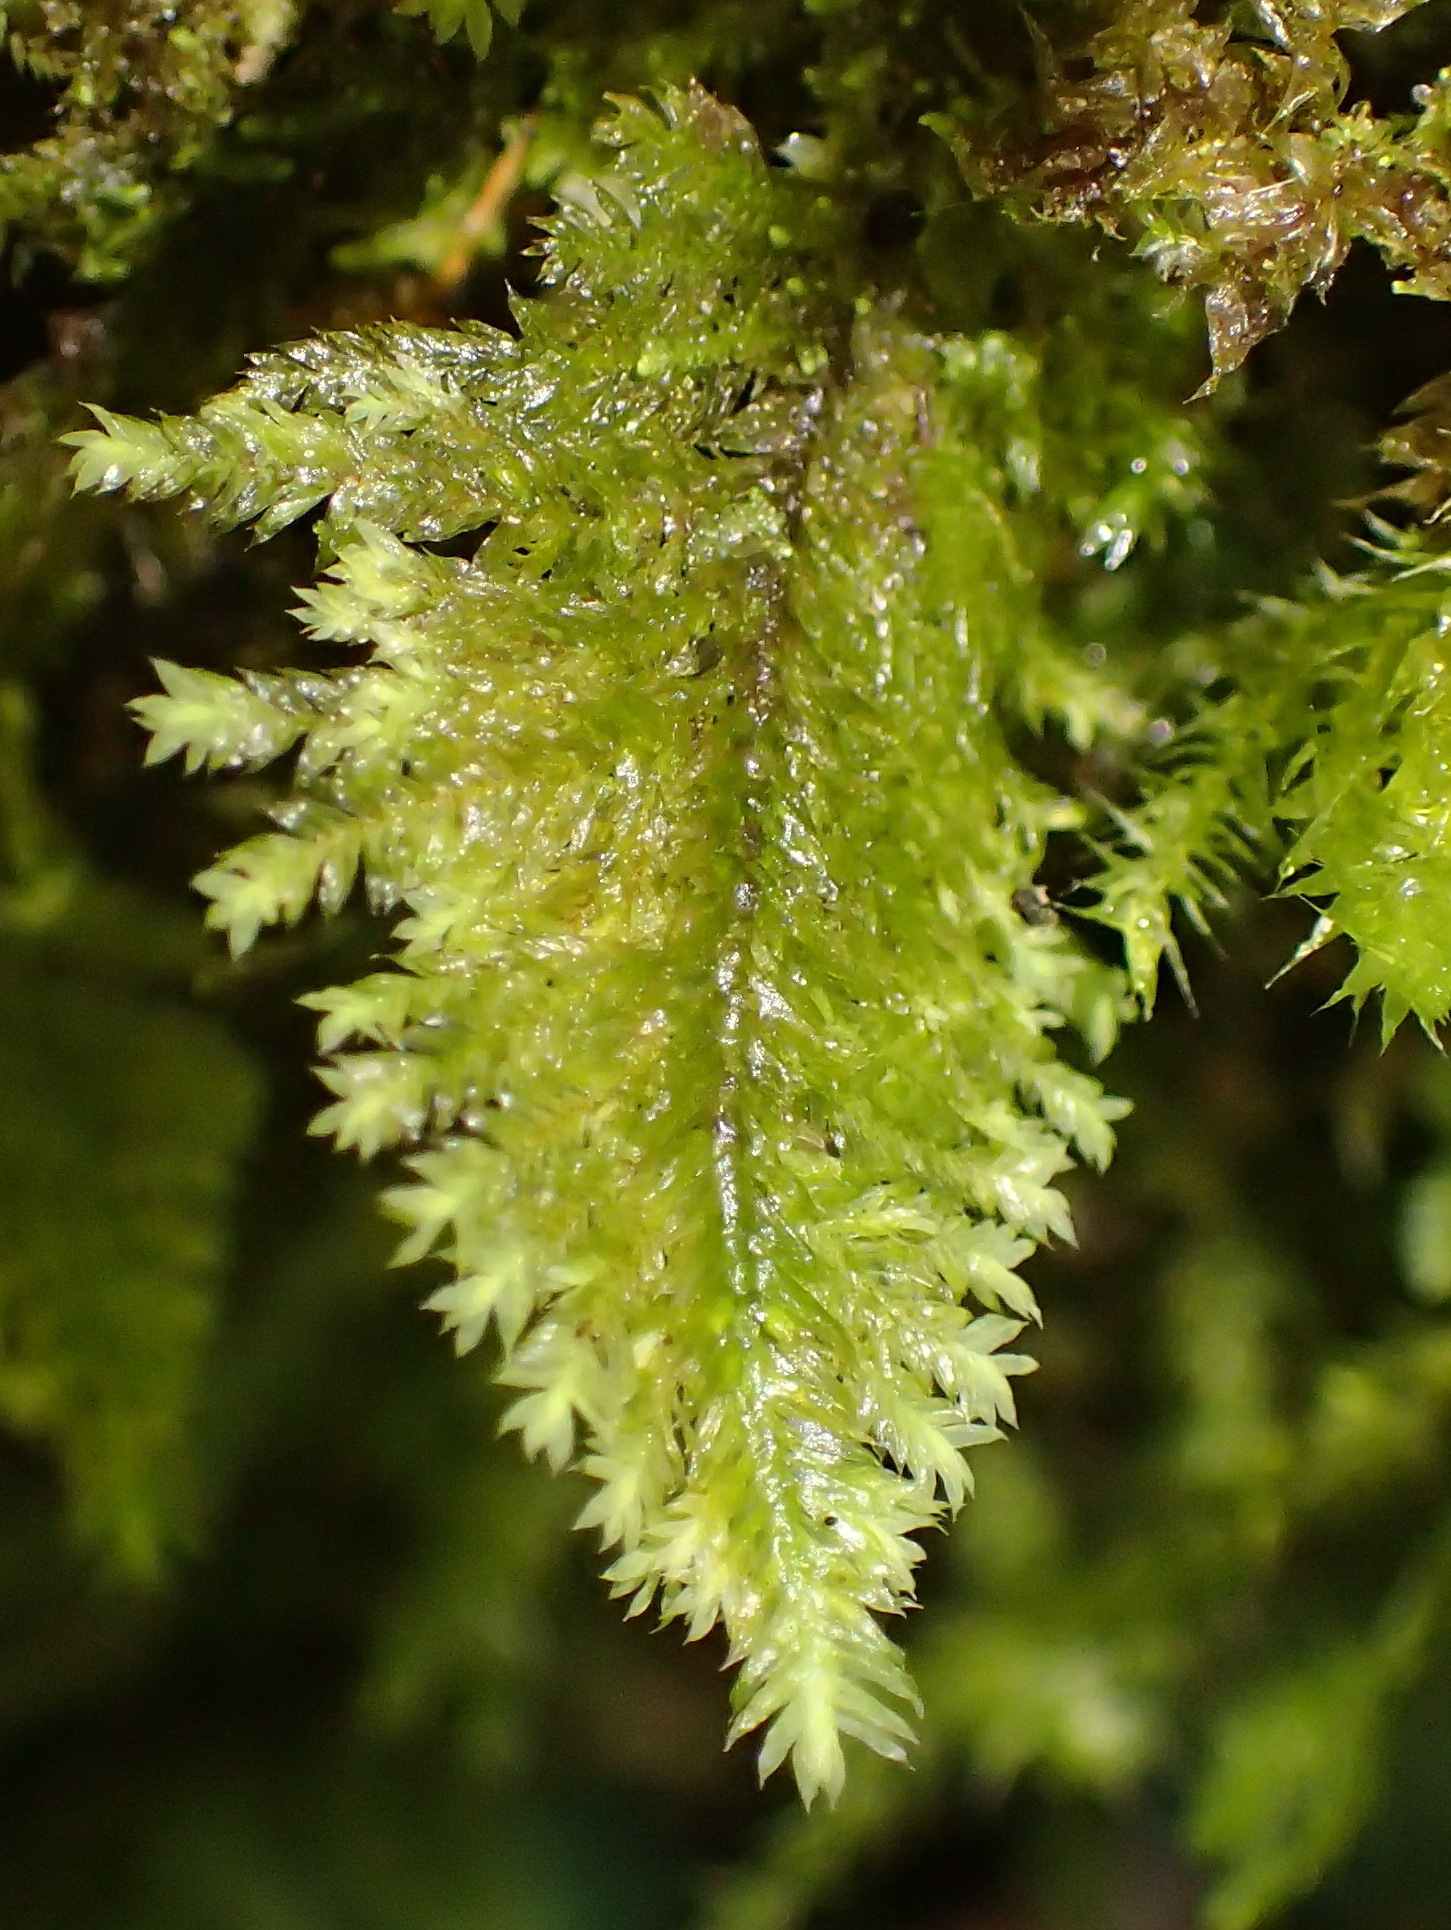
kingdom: Plantae
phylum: Bryophyta
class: Bryopsida
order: Hypopterygiales
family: Hypopterygiaceae
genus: Lopidium
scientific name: Lopidium struthiopteris
